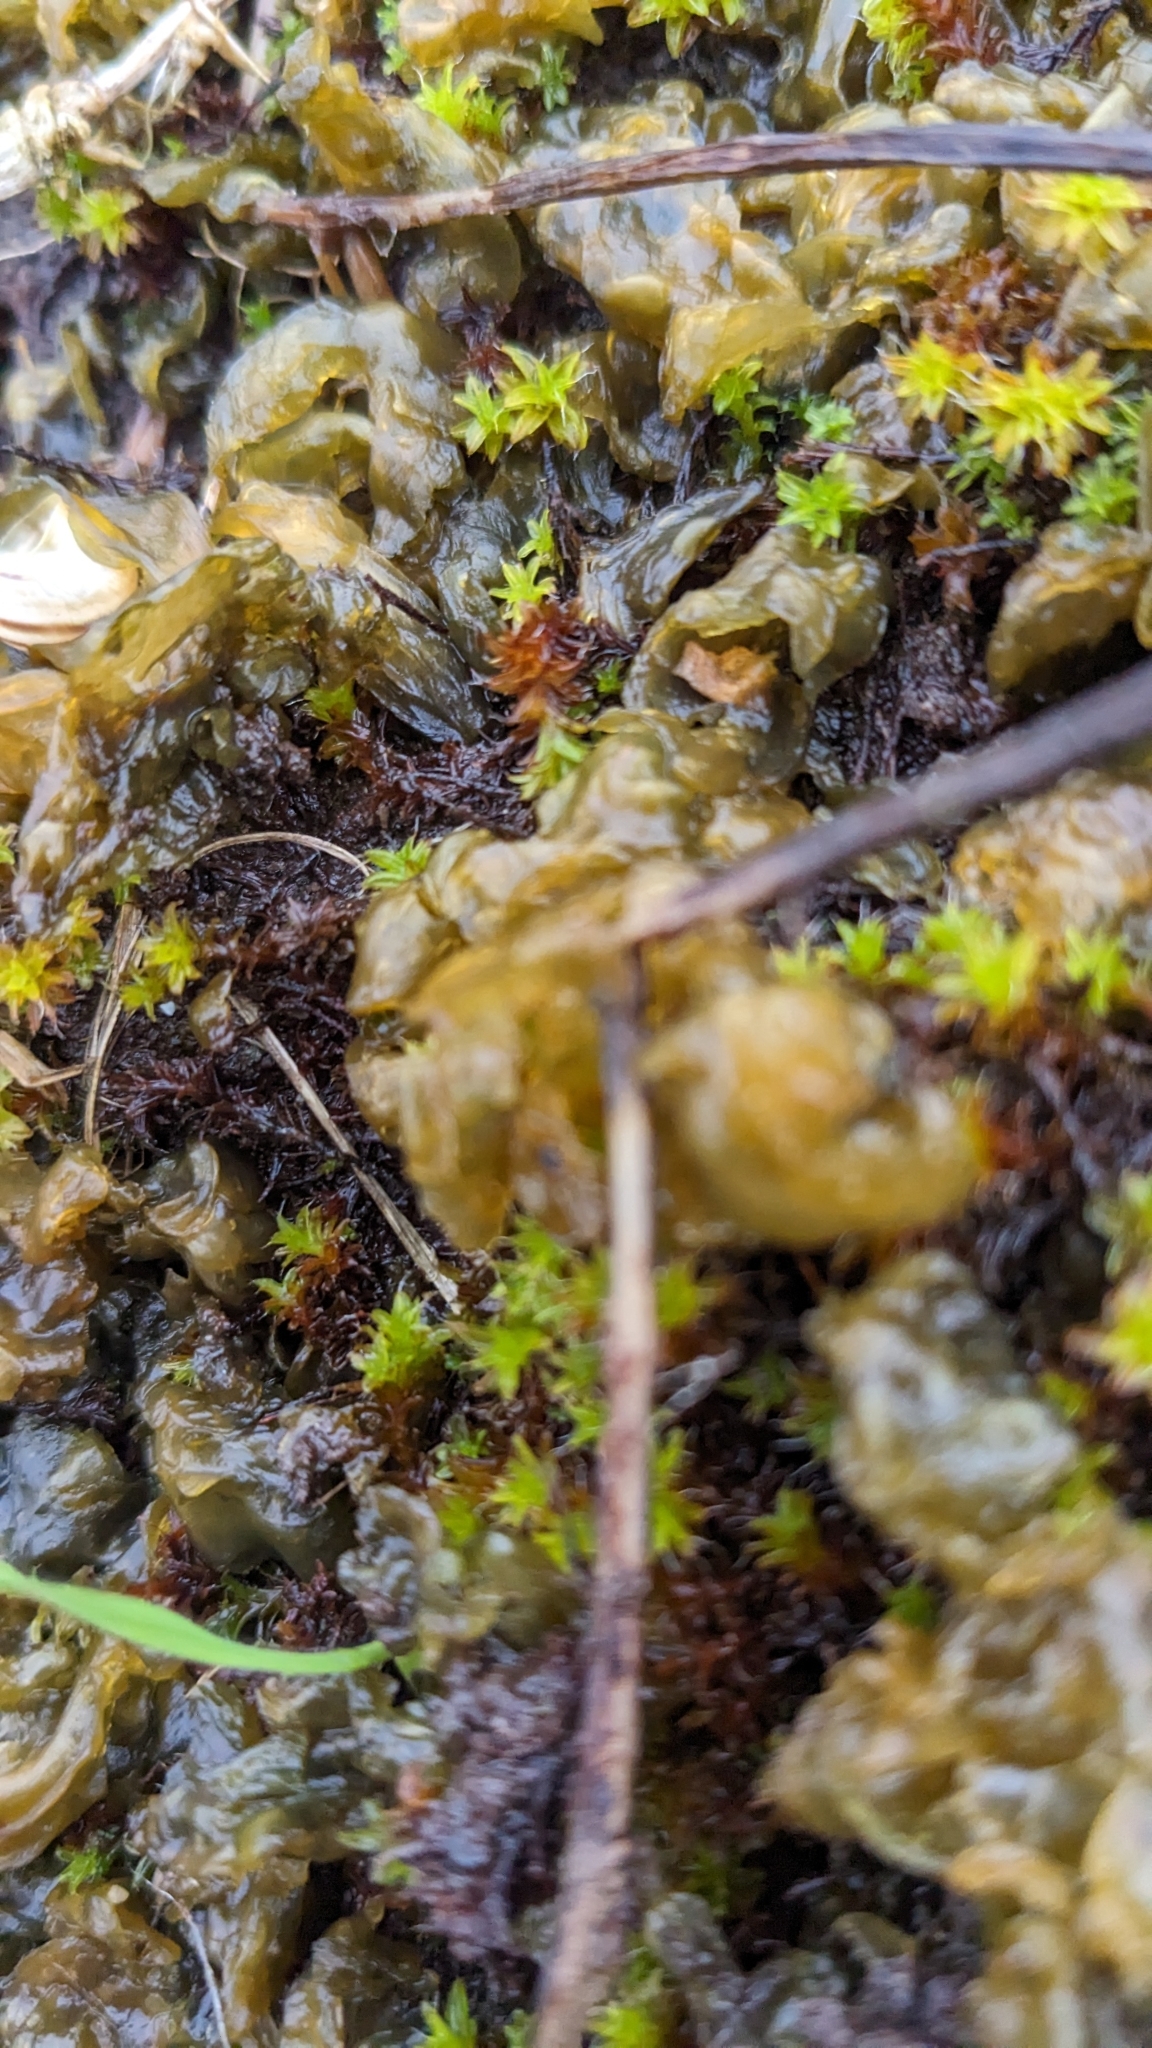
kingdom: Bacteria
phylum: Cyanobacteria
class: Cyanobacteriia
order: Cyanobacteriales
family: Nostocaceae
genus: Nostoc
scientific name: Nostoc commune
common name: Star jelly
